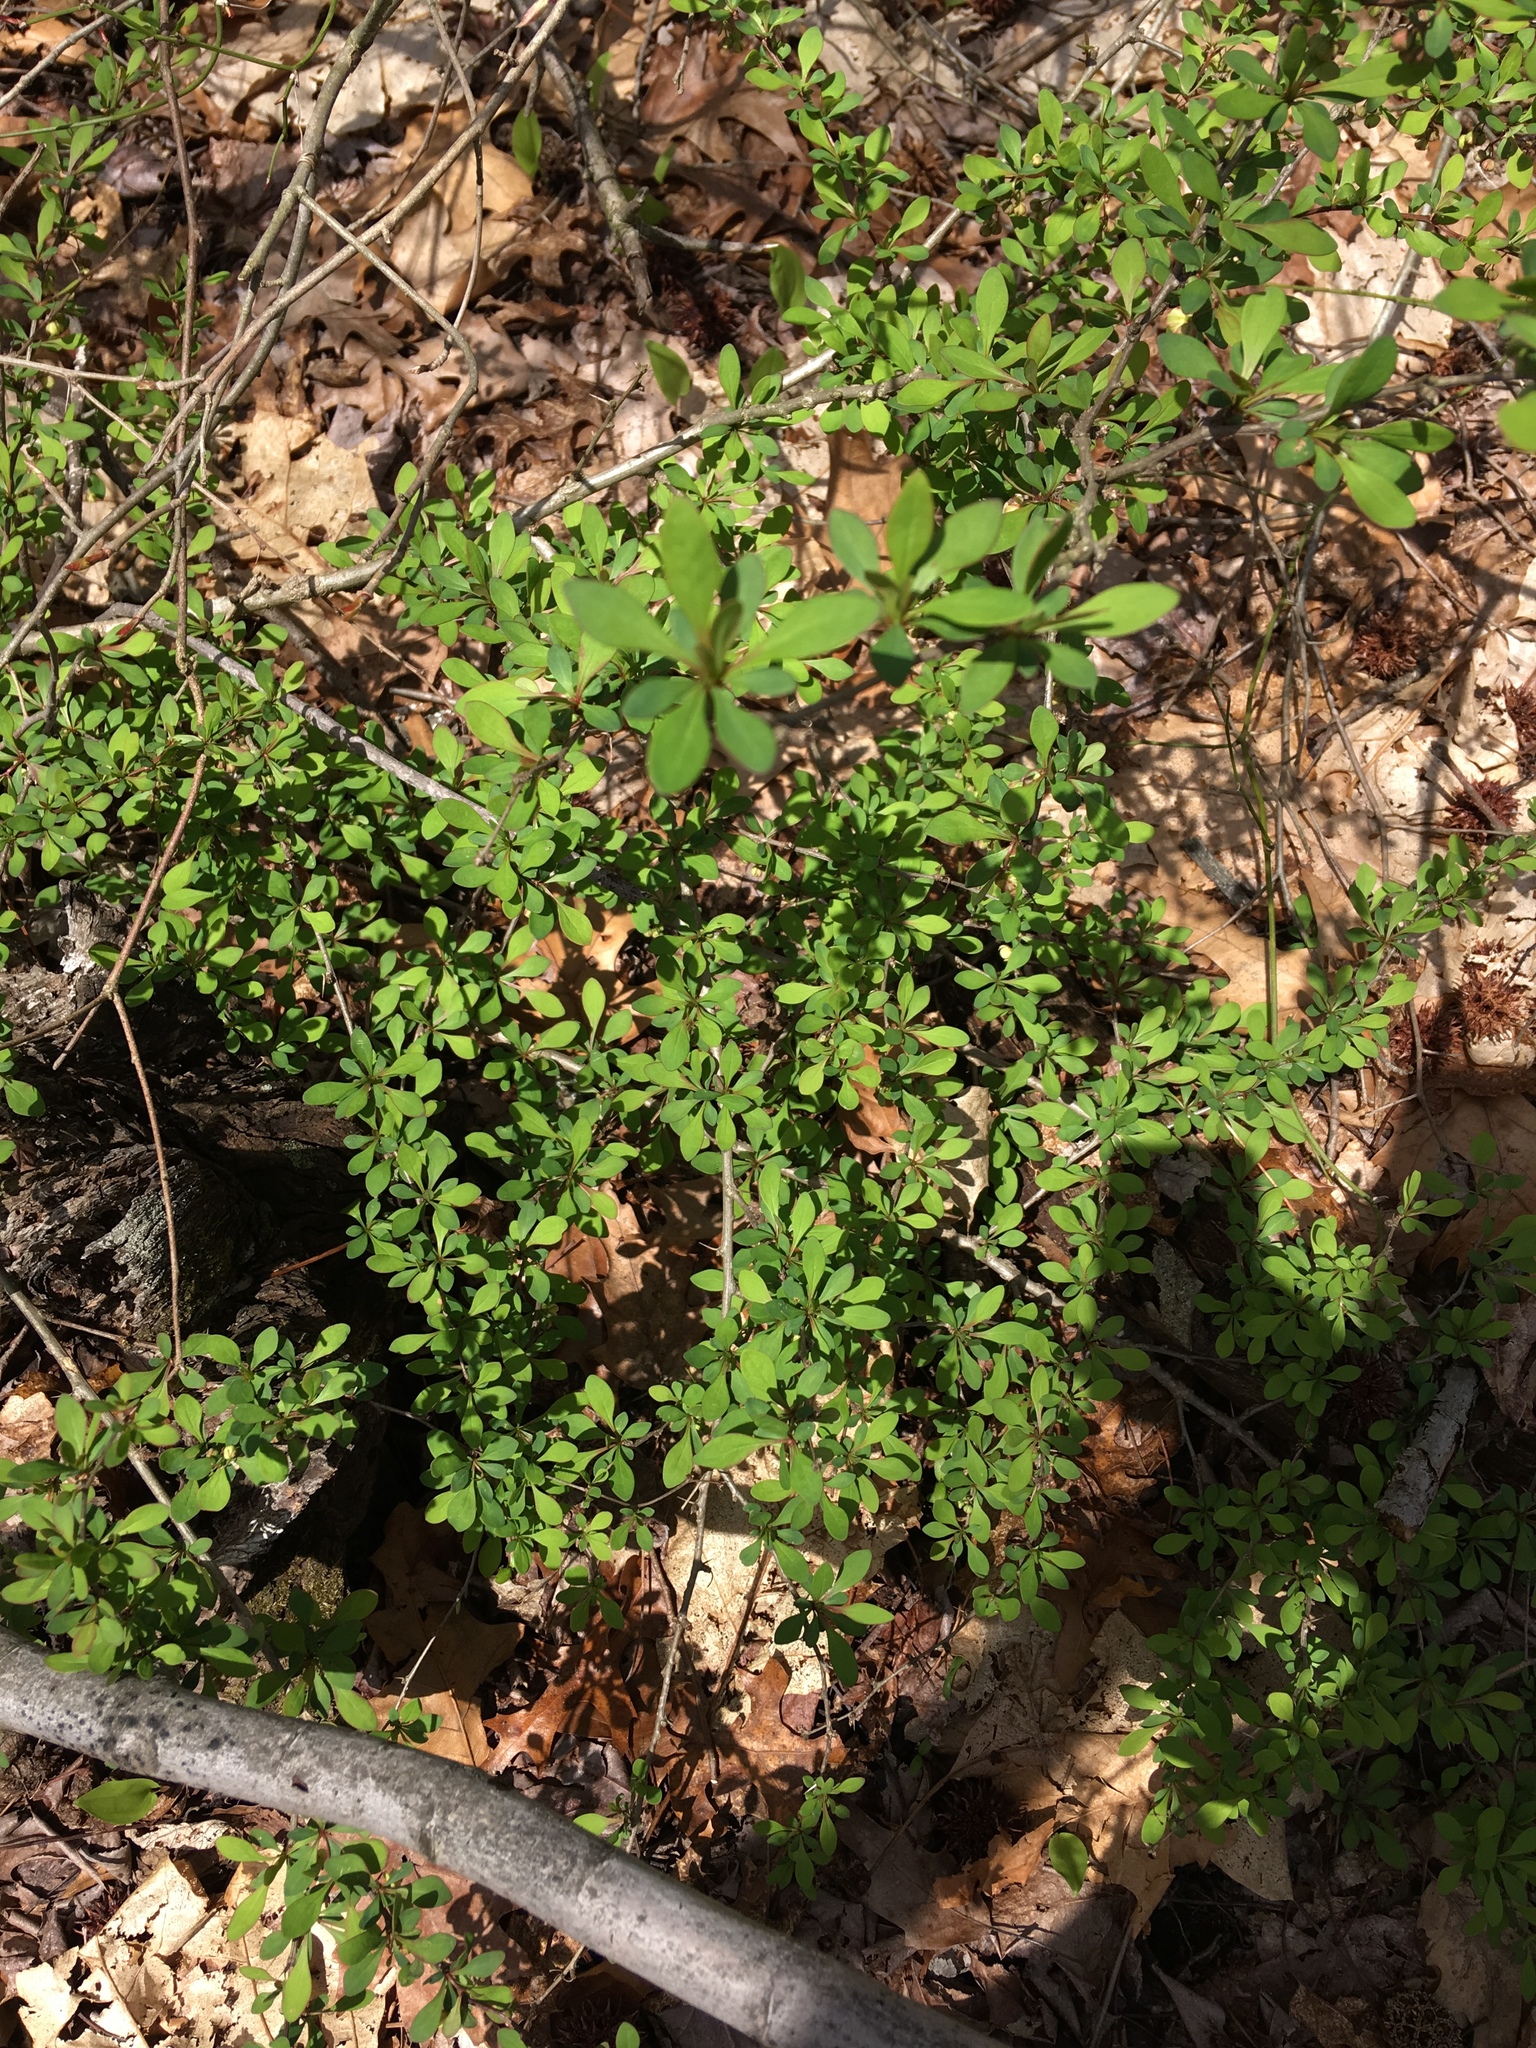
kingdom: Plantae
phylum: Tracheophyta
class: Magnoliopsida
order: Ranunculales
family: Berberidaceae
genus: Berberis
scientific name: Berberis thunbergii
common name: Japanese barberry
